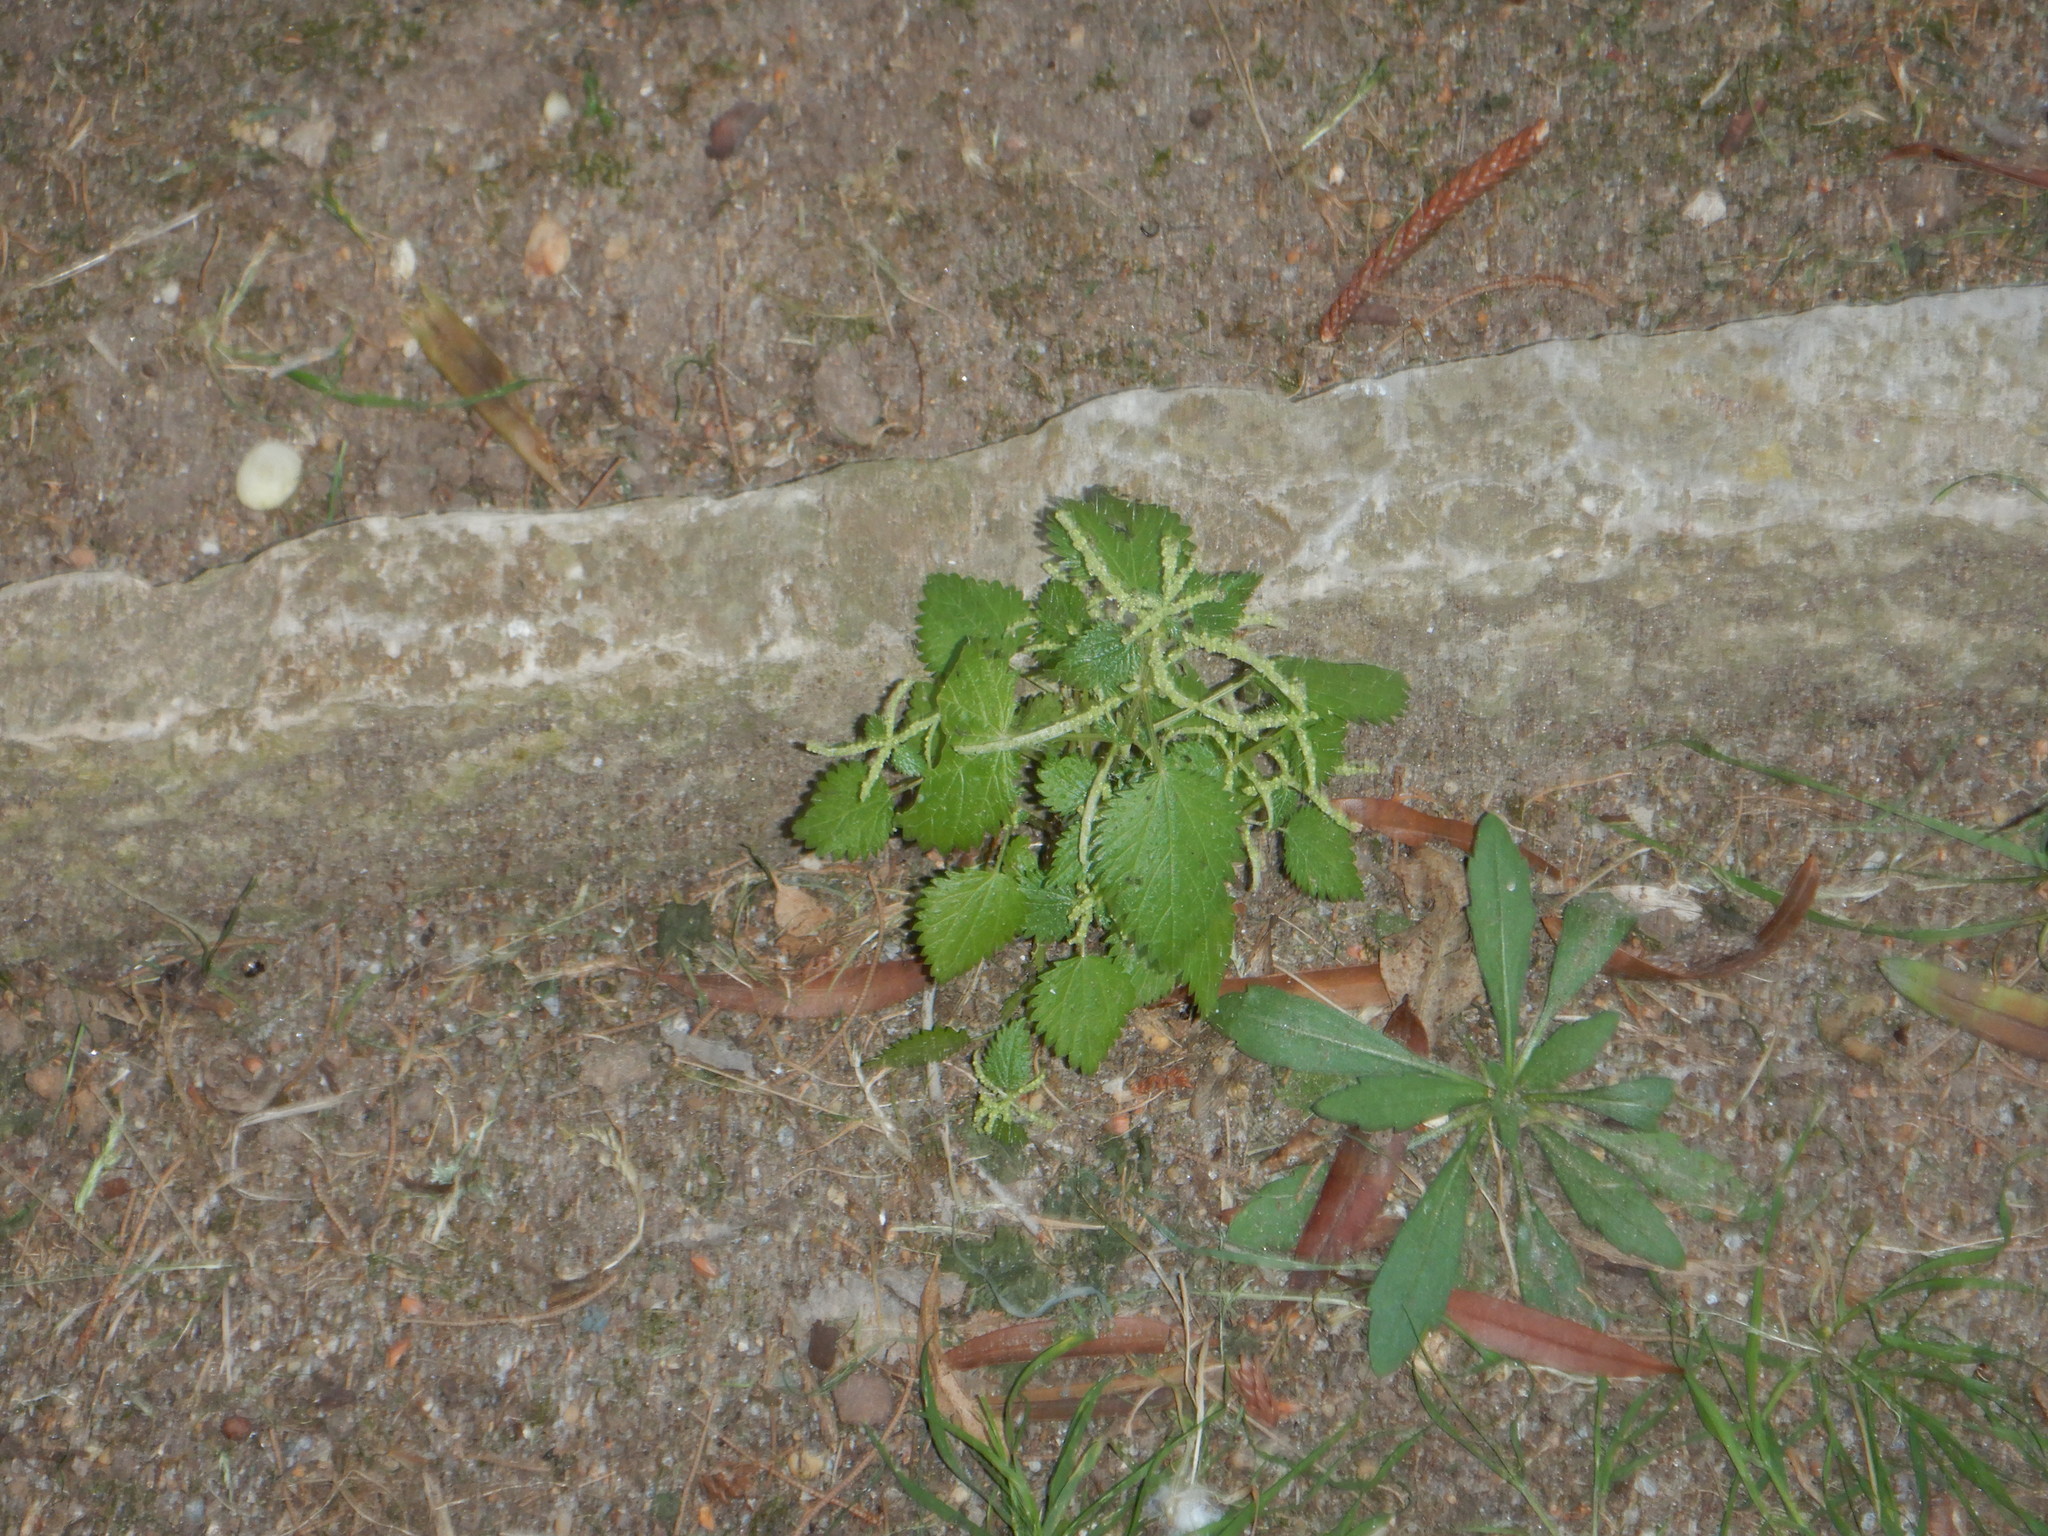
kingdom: Plantae
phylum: Tracheophyta
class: Magnoliopsida
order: Rosales
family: Urticaceae
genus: Urtica
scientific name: Urtica membranacea
